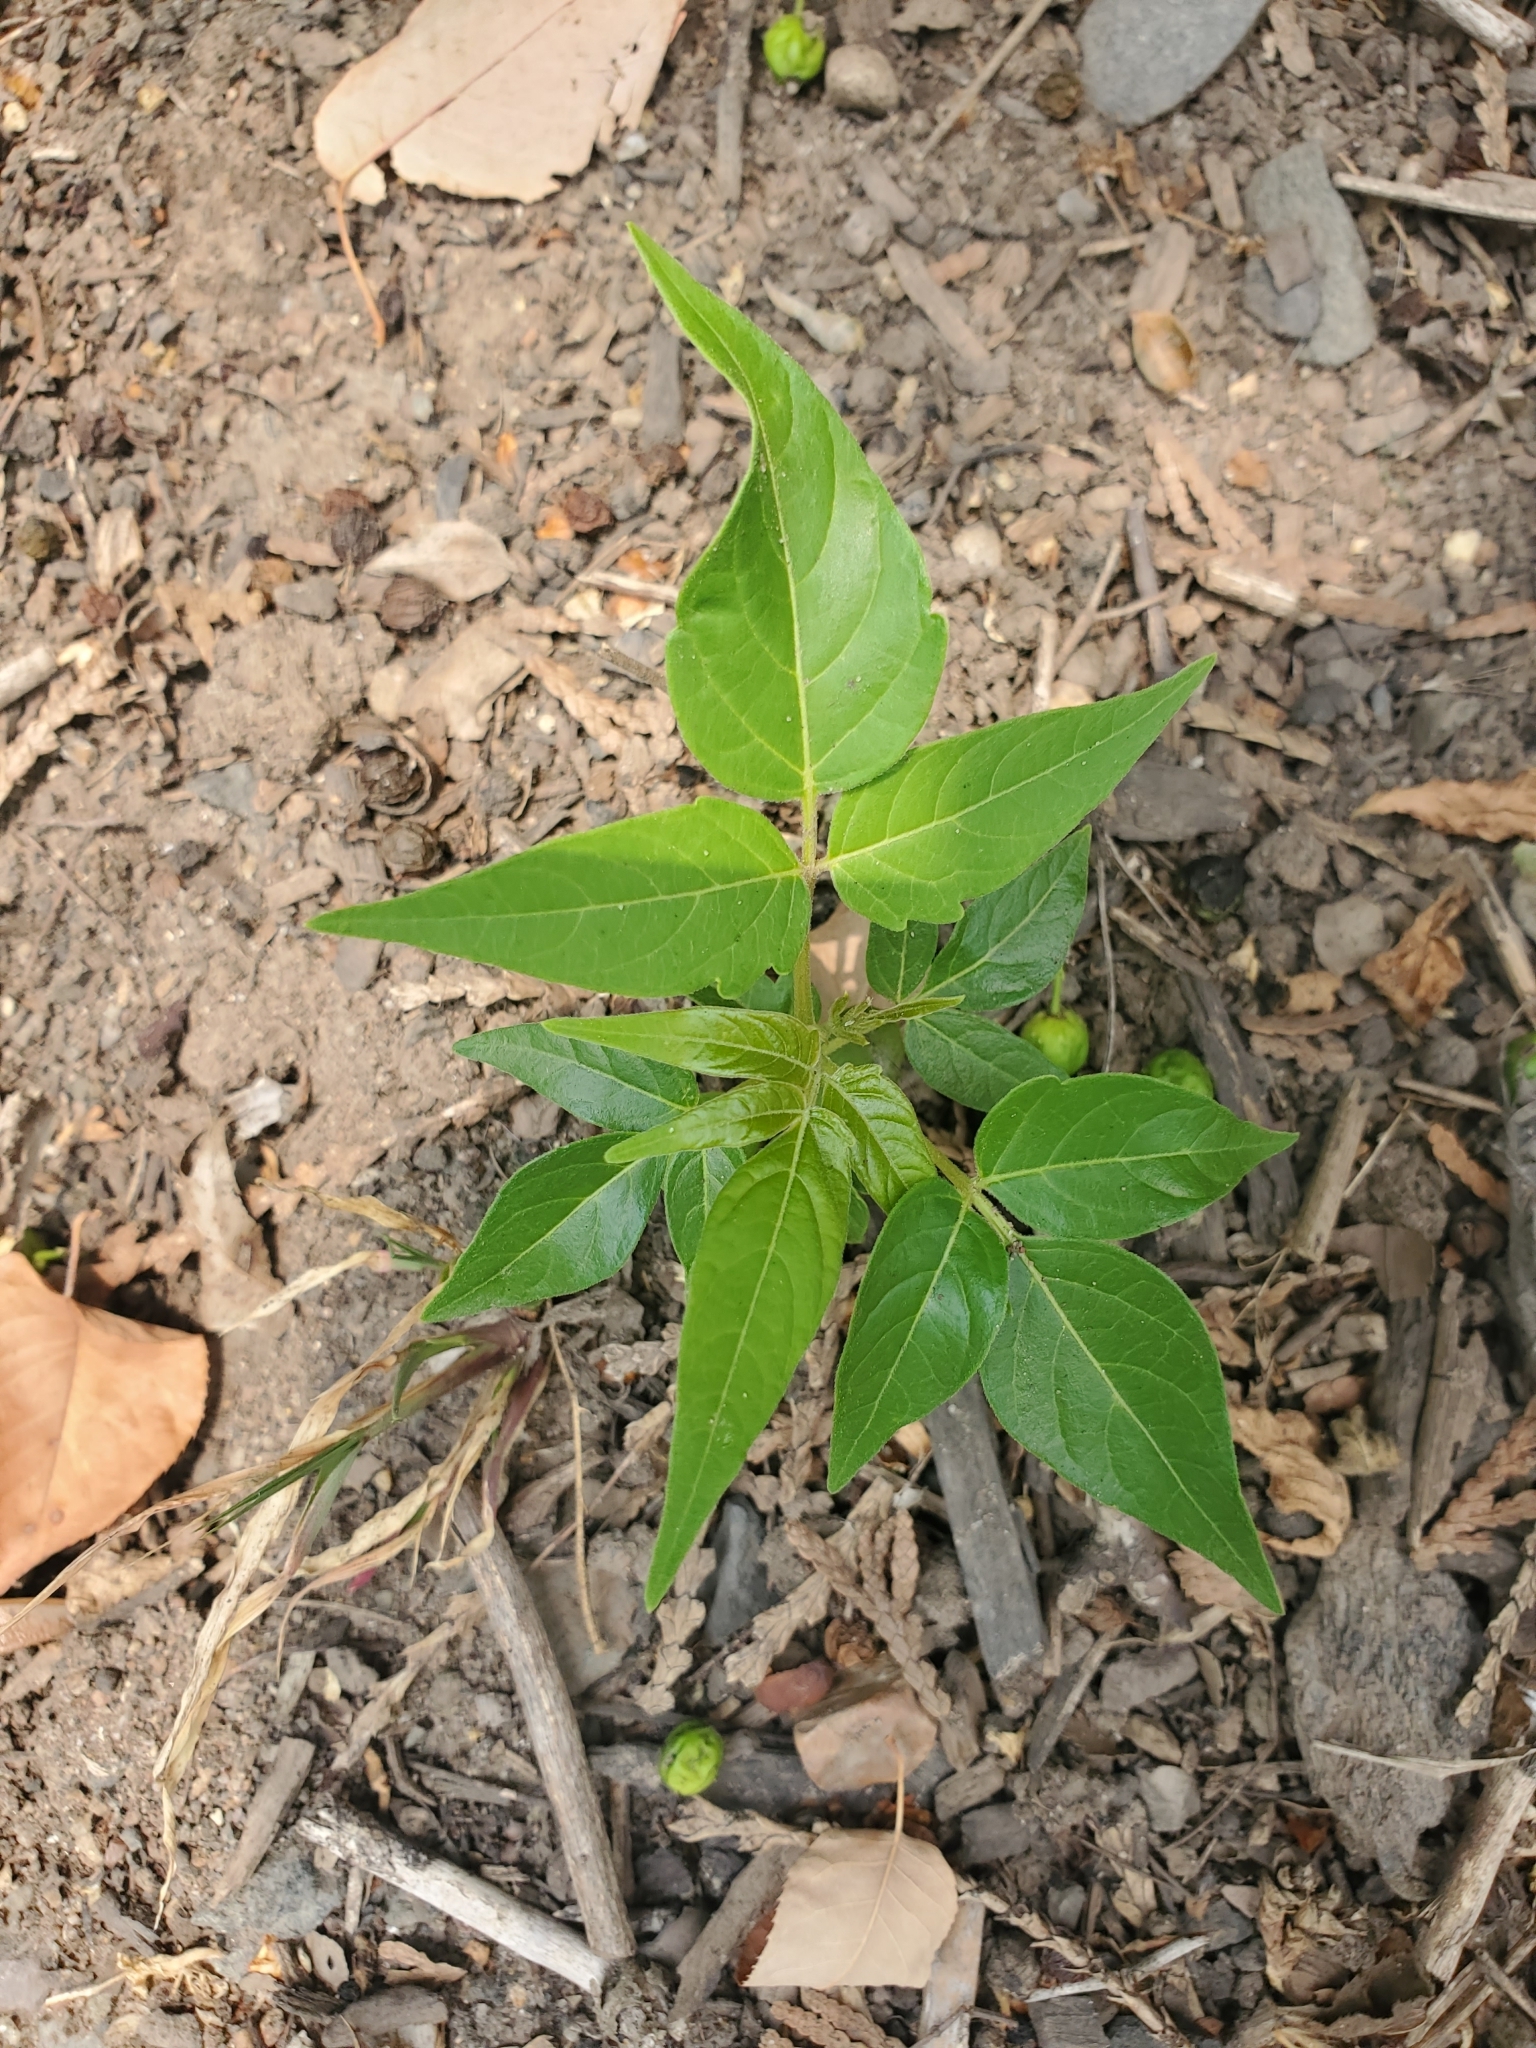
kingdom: Plantae
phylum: Tracheophyta
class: Magnoliopsida
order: Sapindales
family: Simaroubaceae
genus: Ailanthus
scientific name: Ailanthus altissima
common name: Tree-of-heaven
